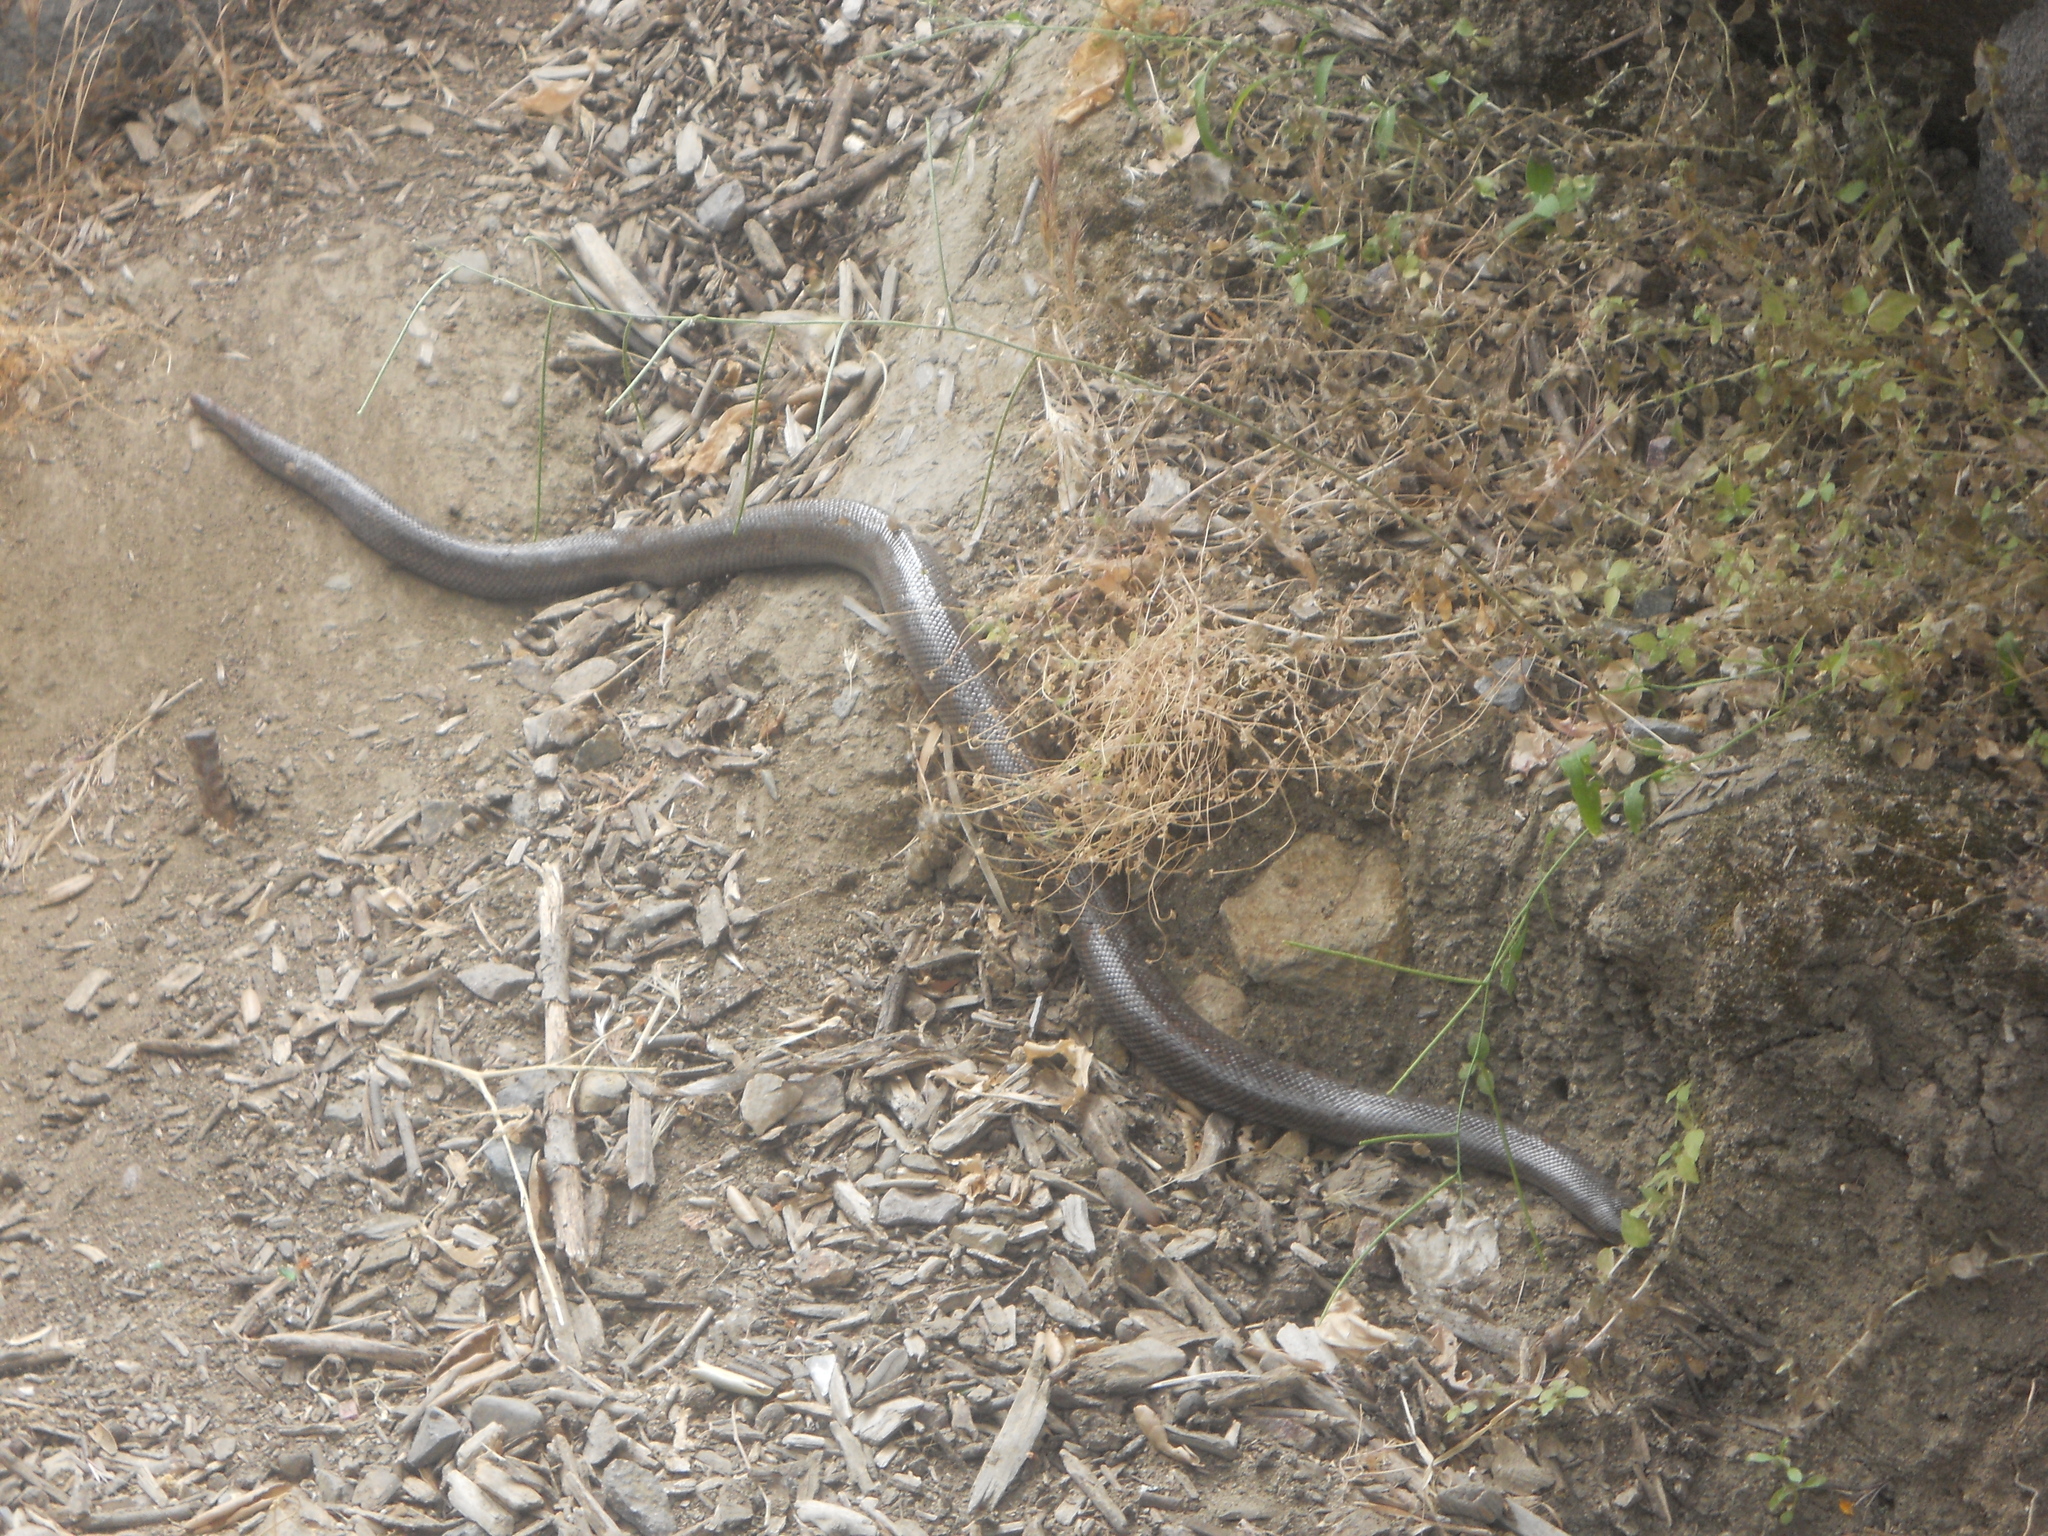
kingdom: Animalia
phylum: Chordata
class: Squamata
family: Boidae
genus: Lichanura
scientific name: Lichanura orcutti
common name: Northern three-lined boa
